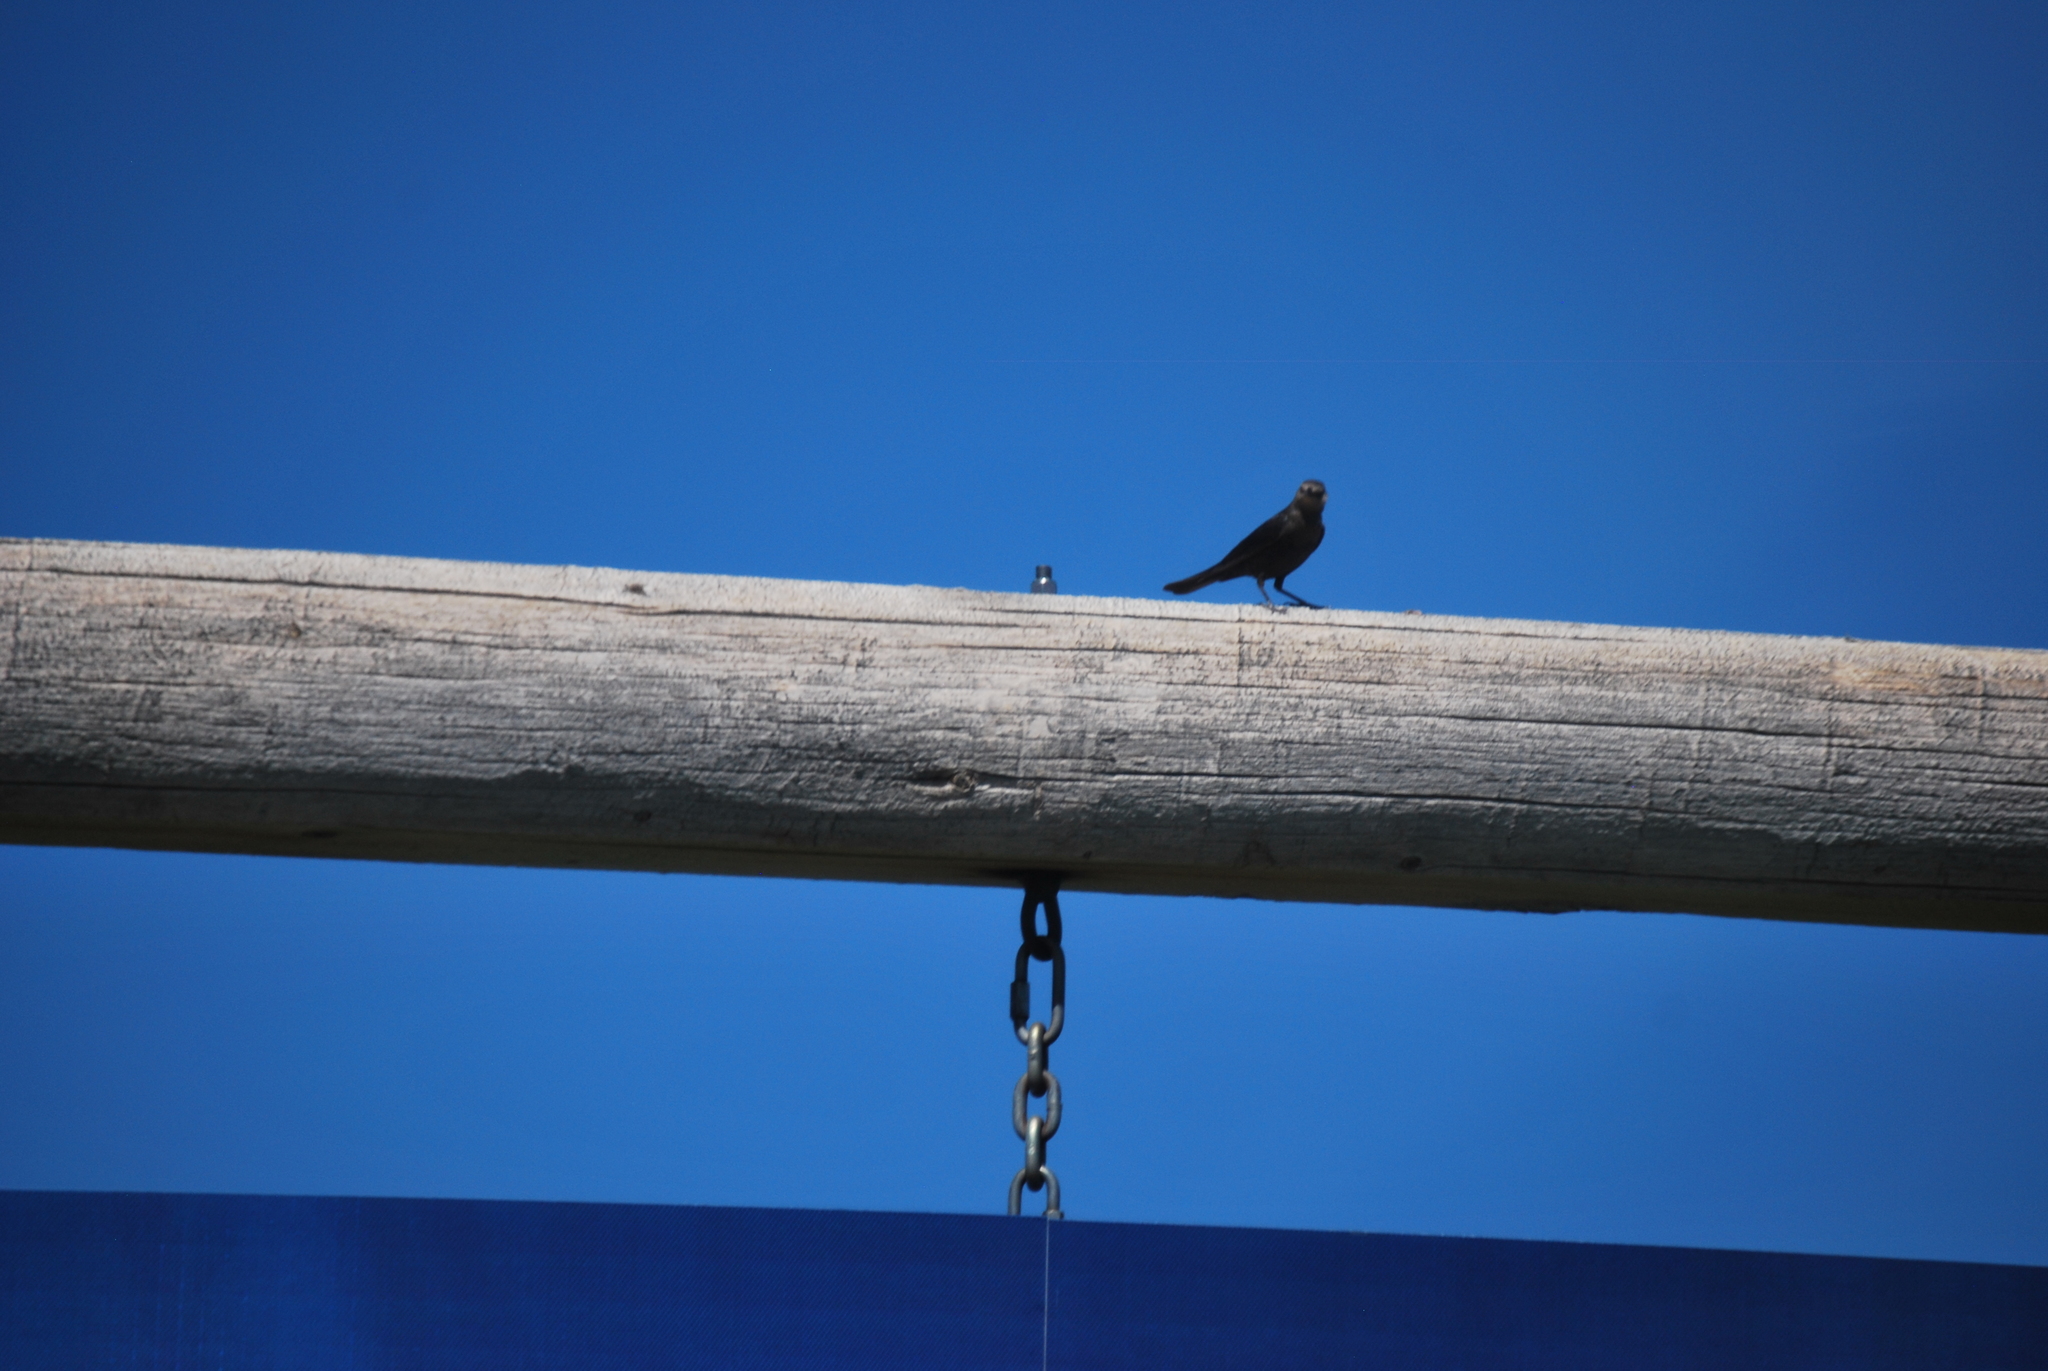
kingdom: Animalia
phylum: Chordata
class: Aves
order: Passeriformes
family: Icteridae
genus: Molothrus
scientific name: Molothrus ater
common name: Brown-headed cowbird
